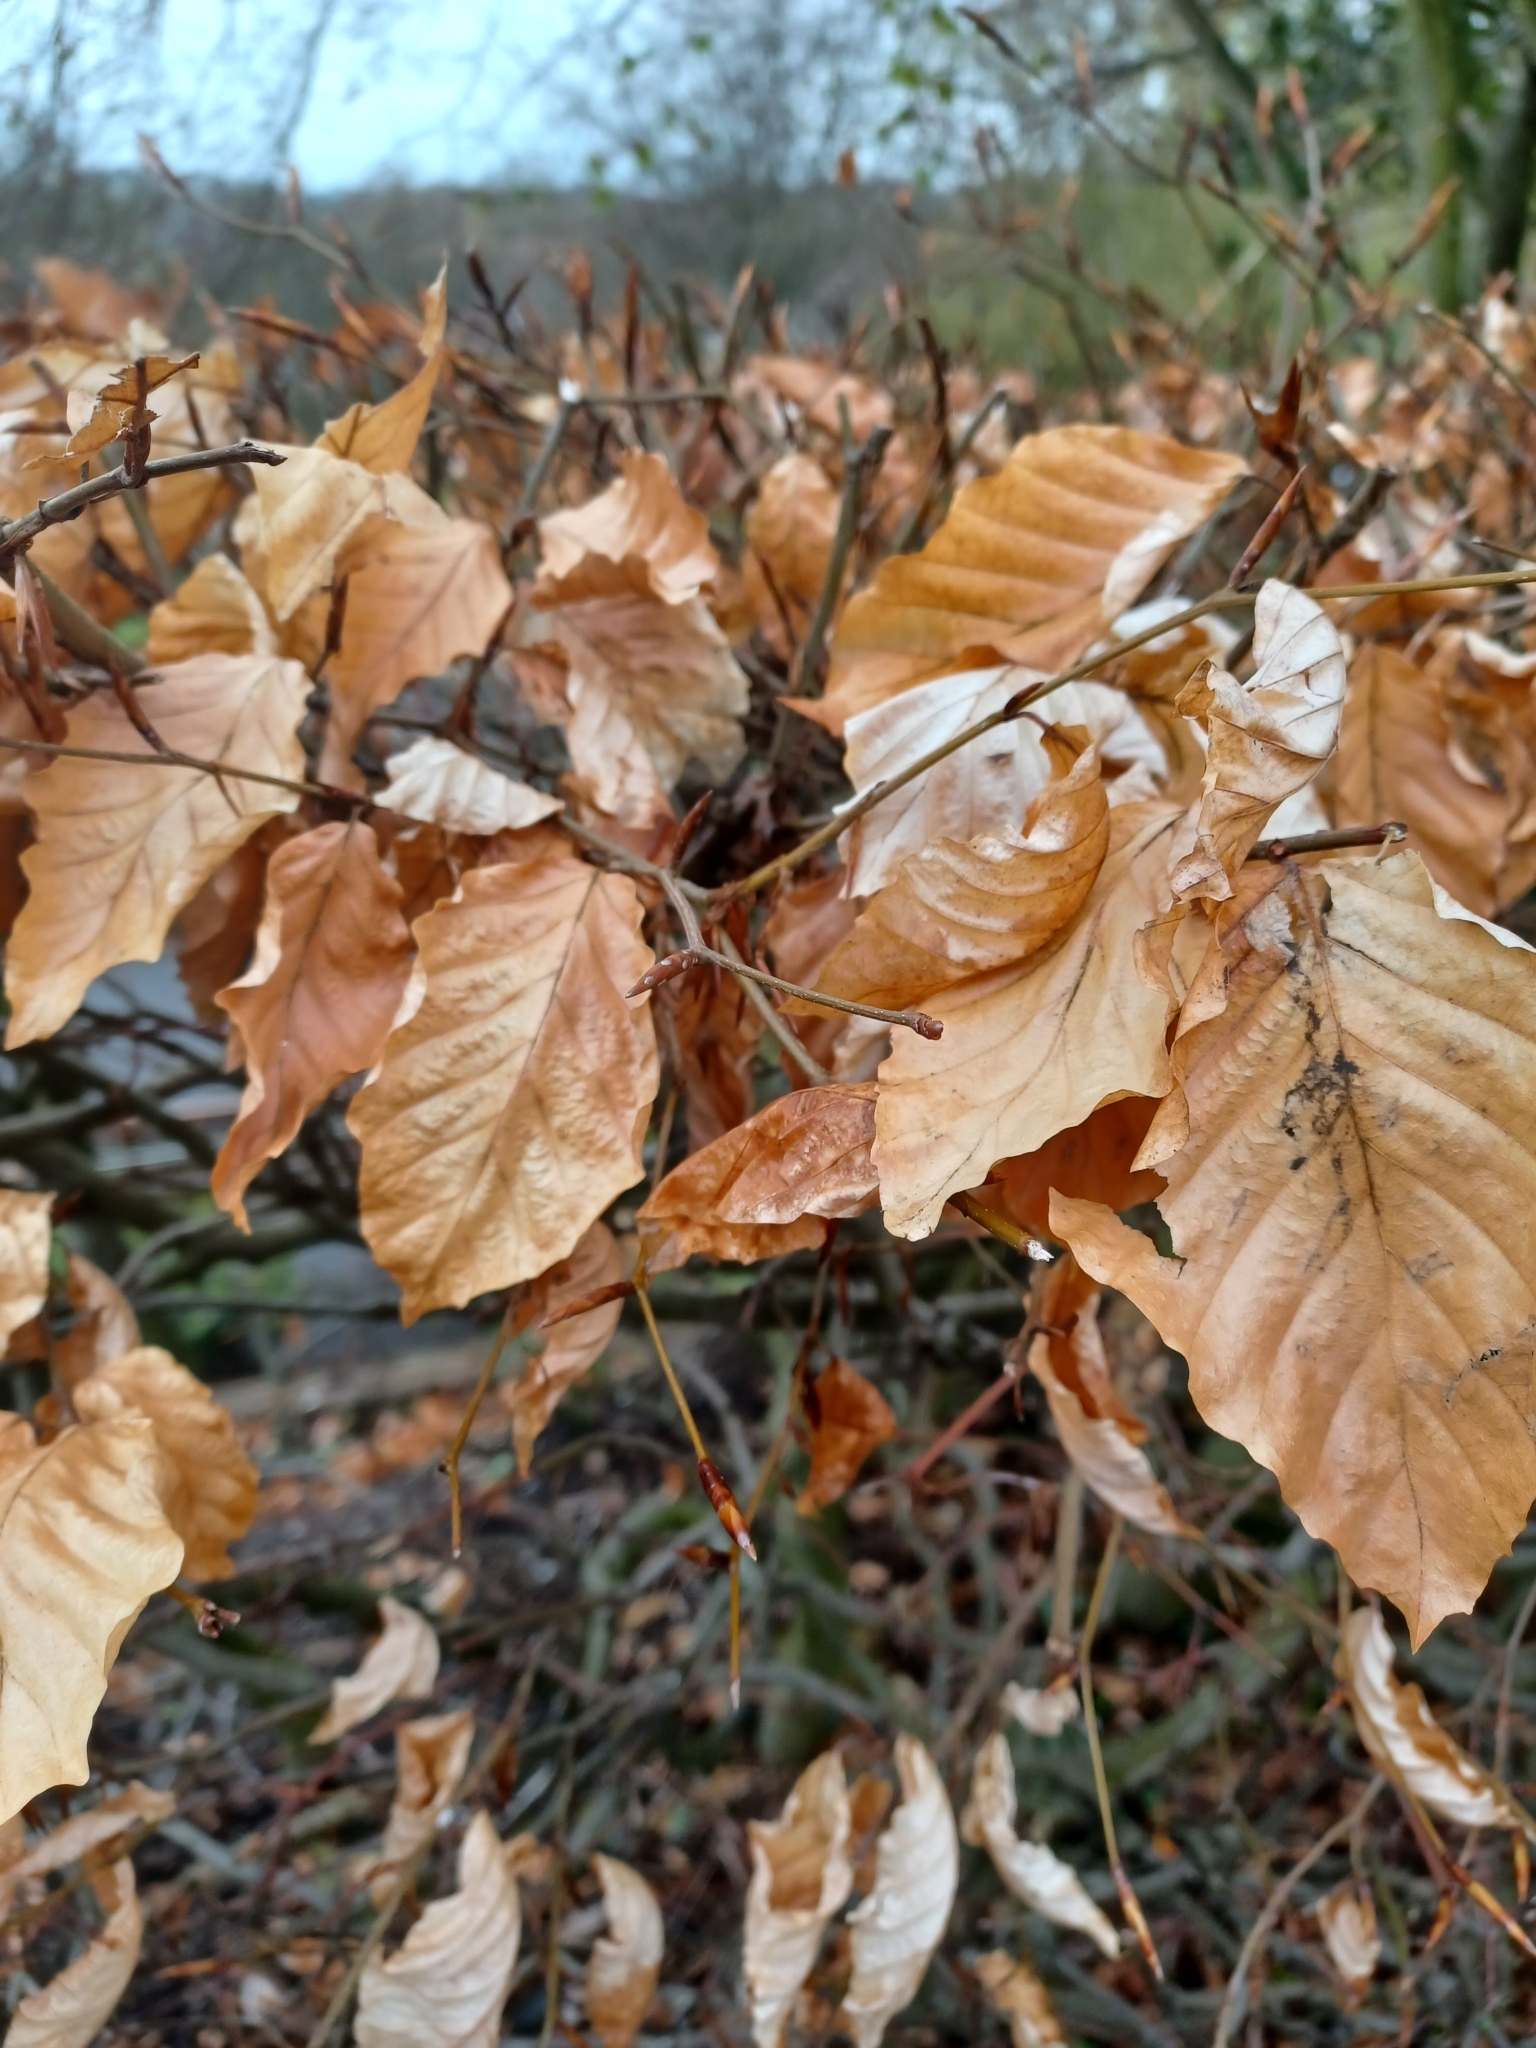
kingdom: Plantae
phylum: Tracheophyta
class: Magnoliopsida
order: Fagales
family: Fagaceae
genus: Fagus
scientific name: Fagus sylvatica
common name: Beech
